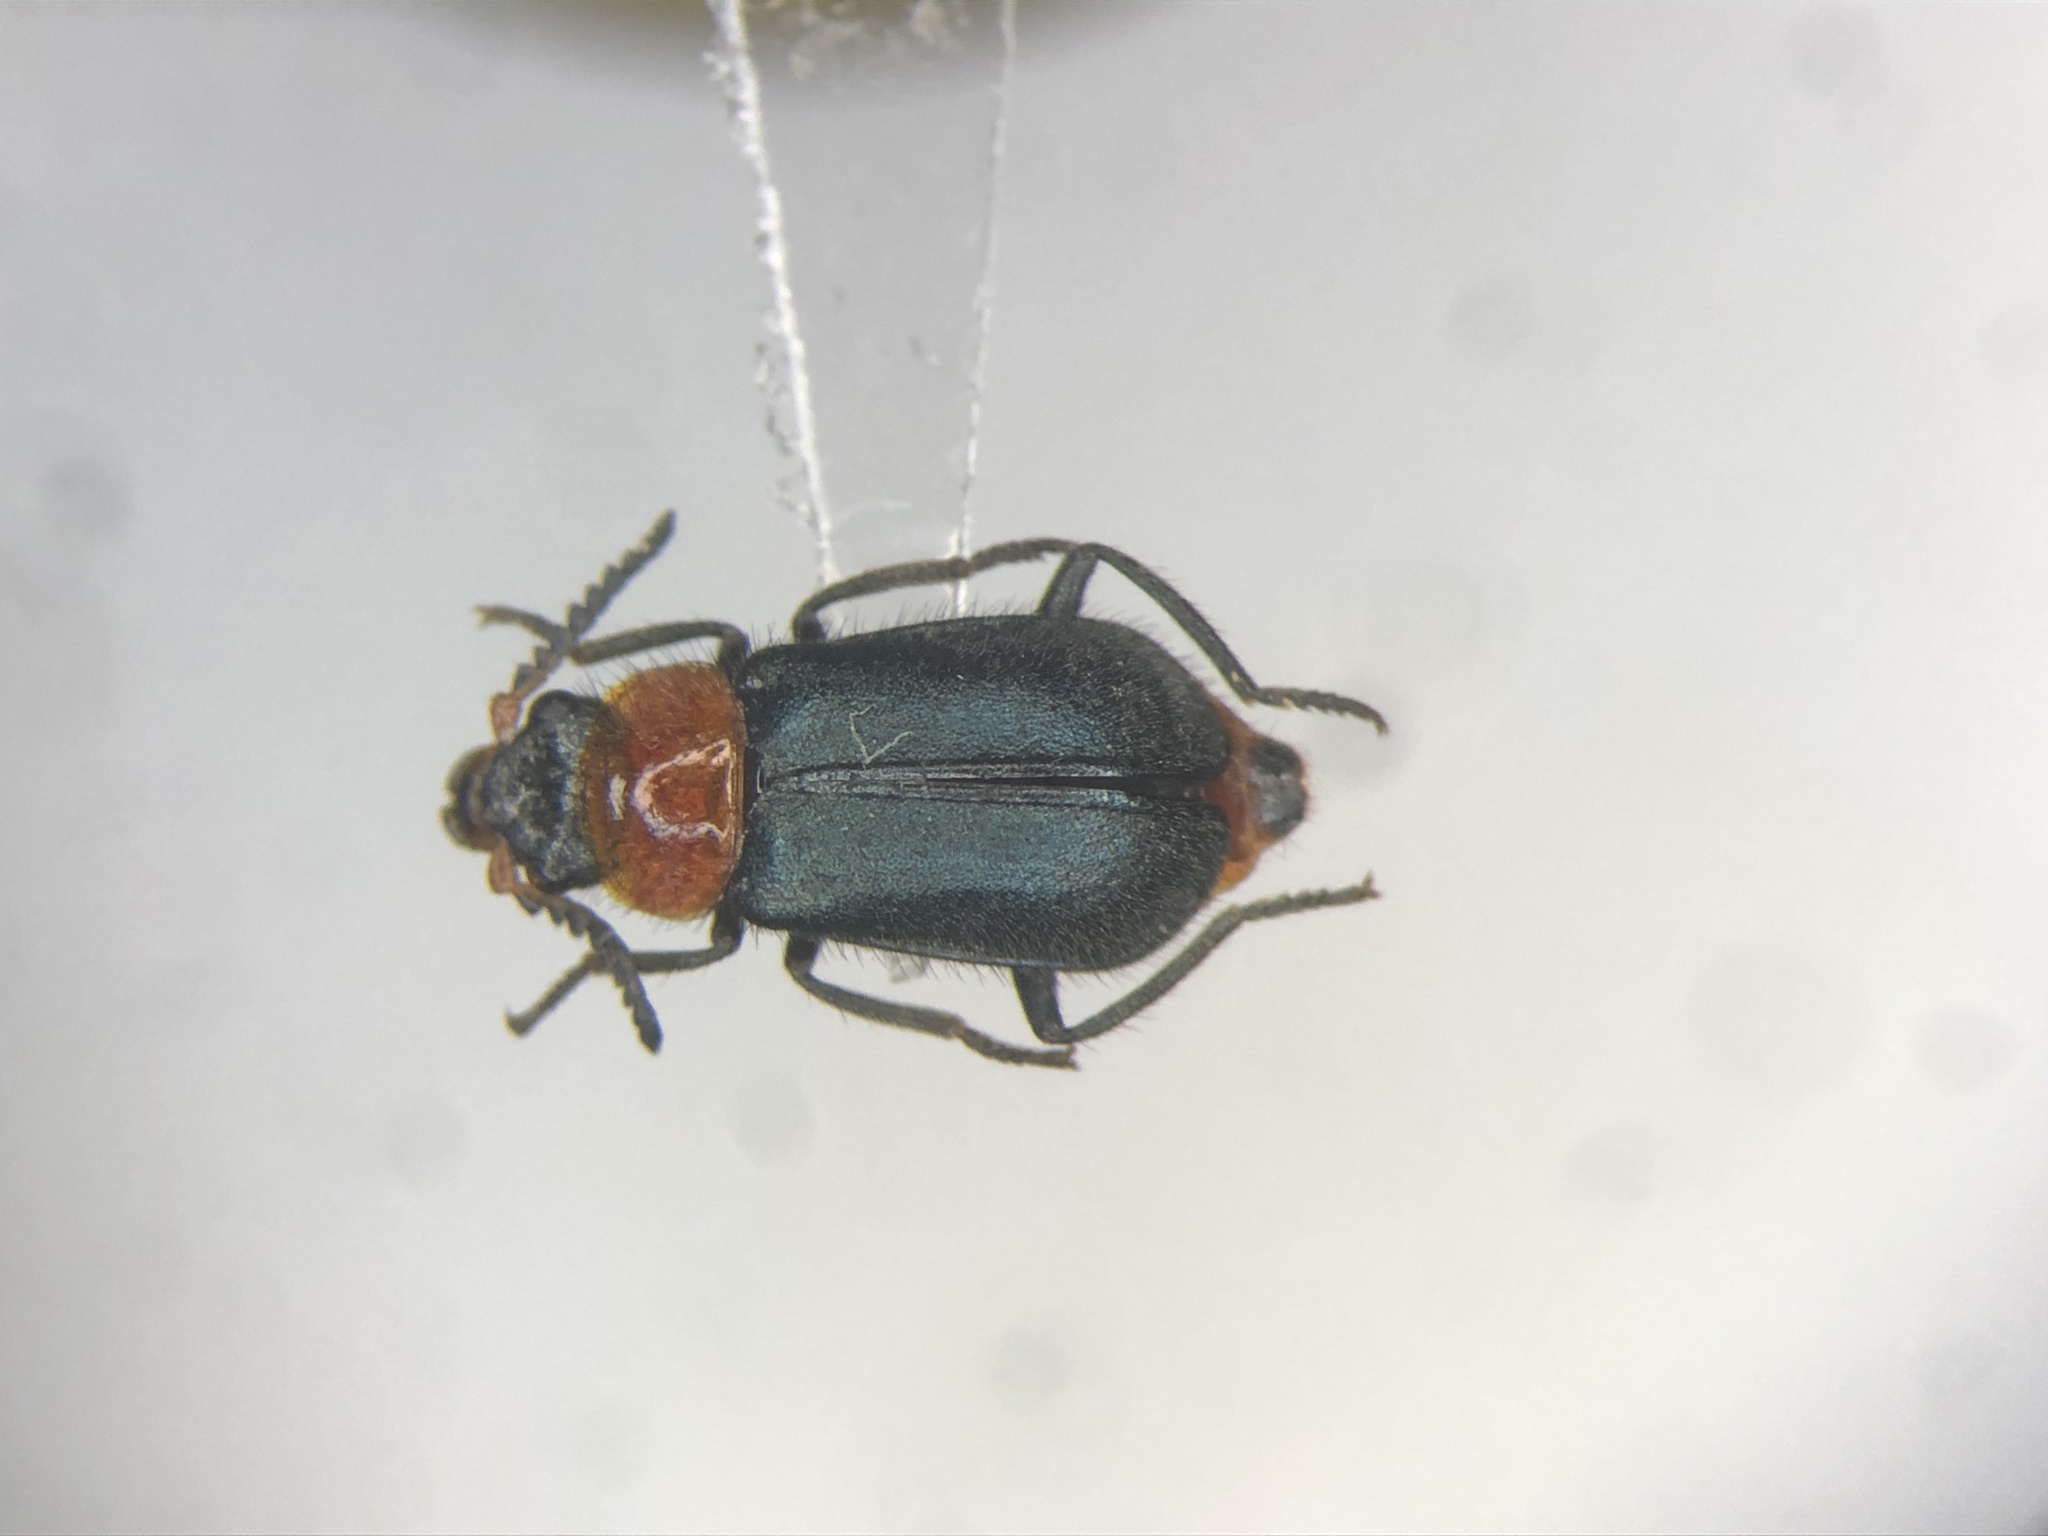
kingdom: Animalia
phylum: Arthropoda
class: Insecta
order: Coleoptera
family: Melyridae
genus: Collops
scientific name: Collops tricolor
